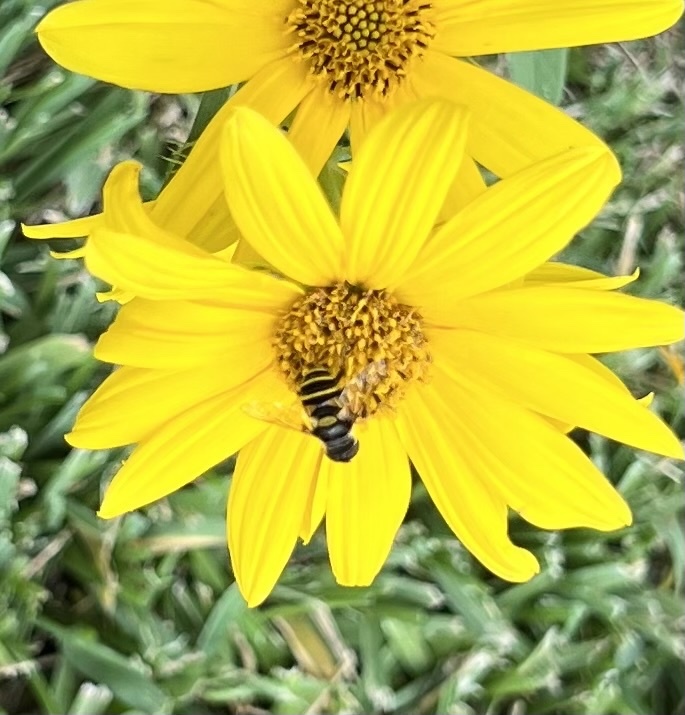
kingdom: Animalia
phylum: Arthropoda
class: Insecta
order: Diptera
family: Syrphidae
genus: Eristalis
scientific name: Eristalis transversa
